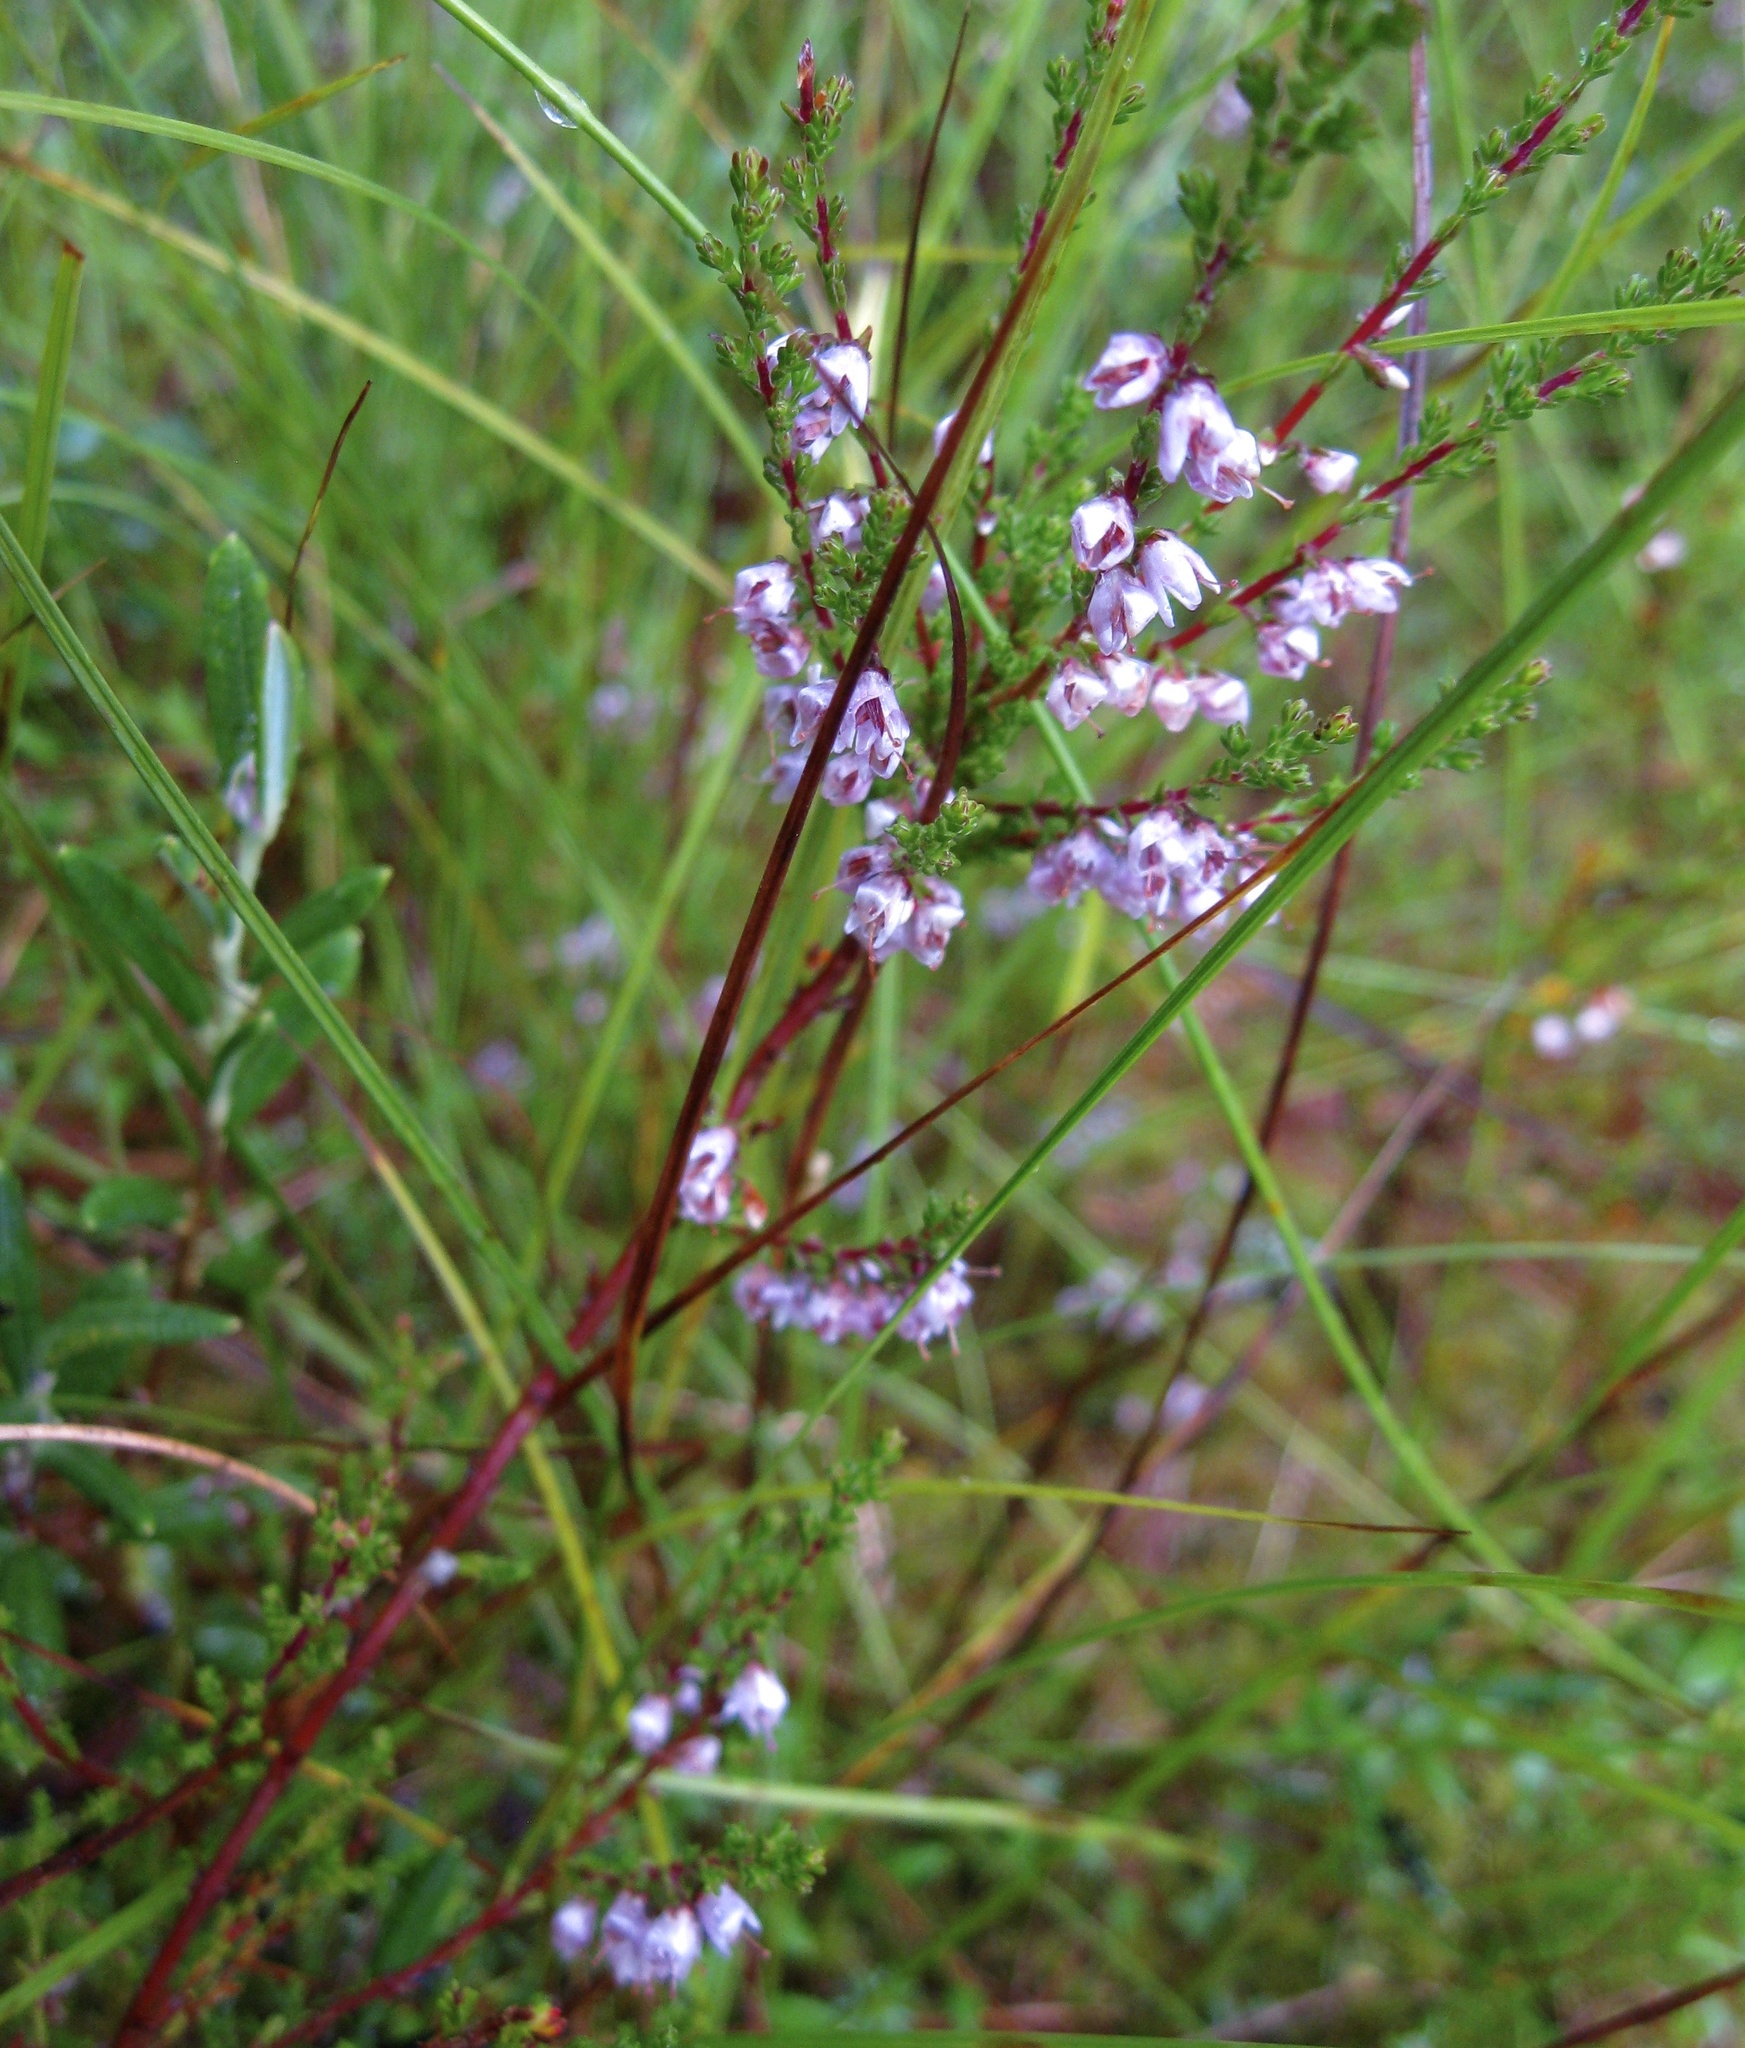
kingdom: Plantae
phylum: Tracheophyta
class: Magnoliopsida
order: Ericales
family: Ericaceae
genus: Calluna
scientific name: Calluna vulgaris
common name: Heather
